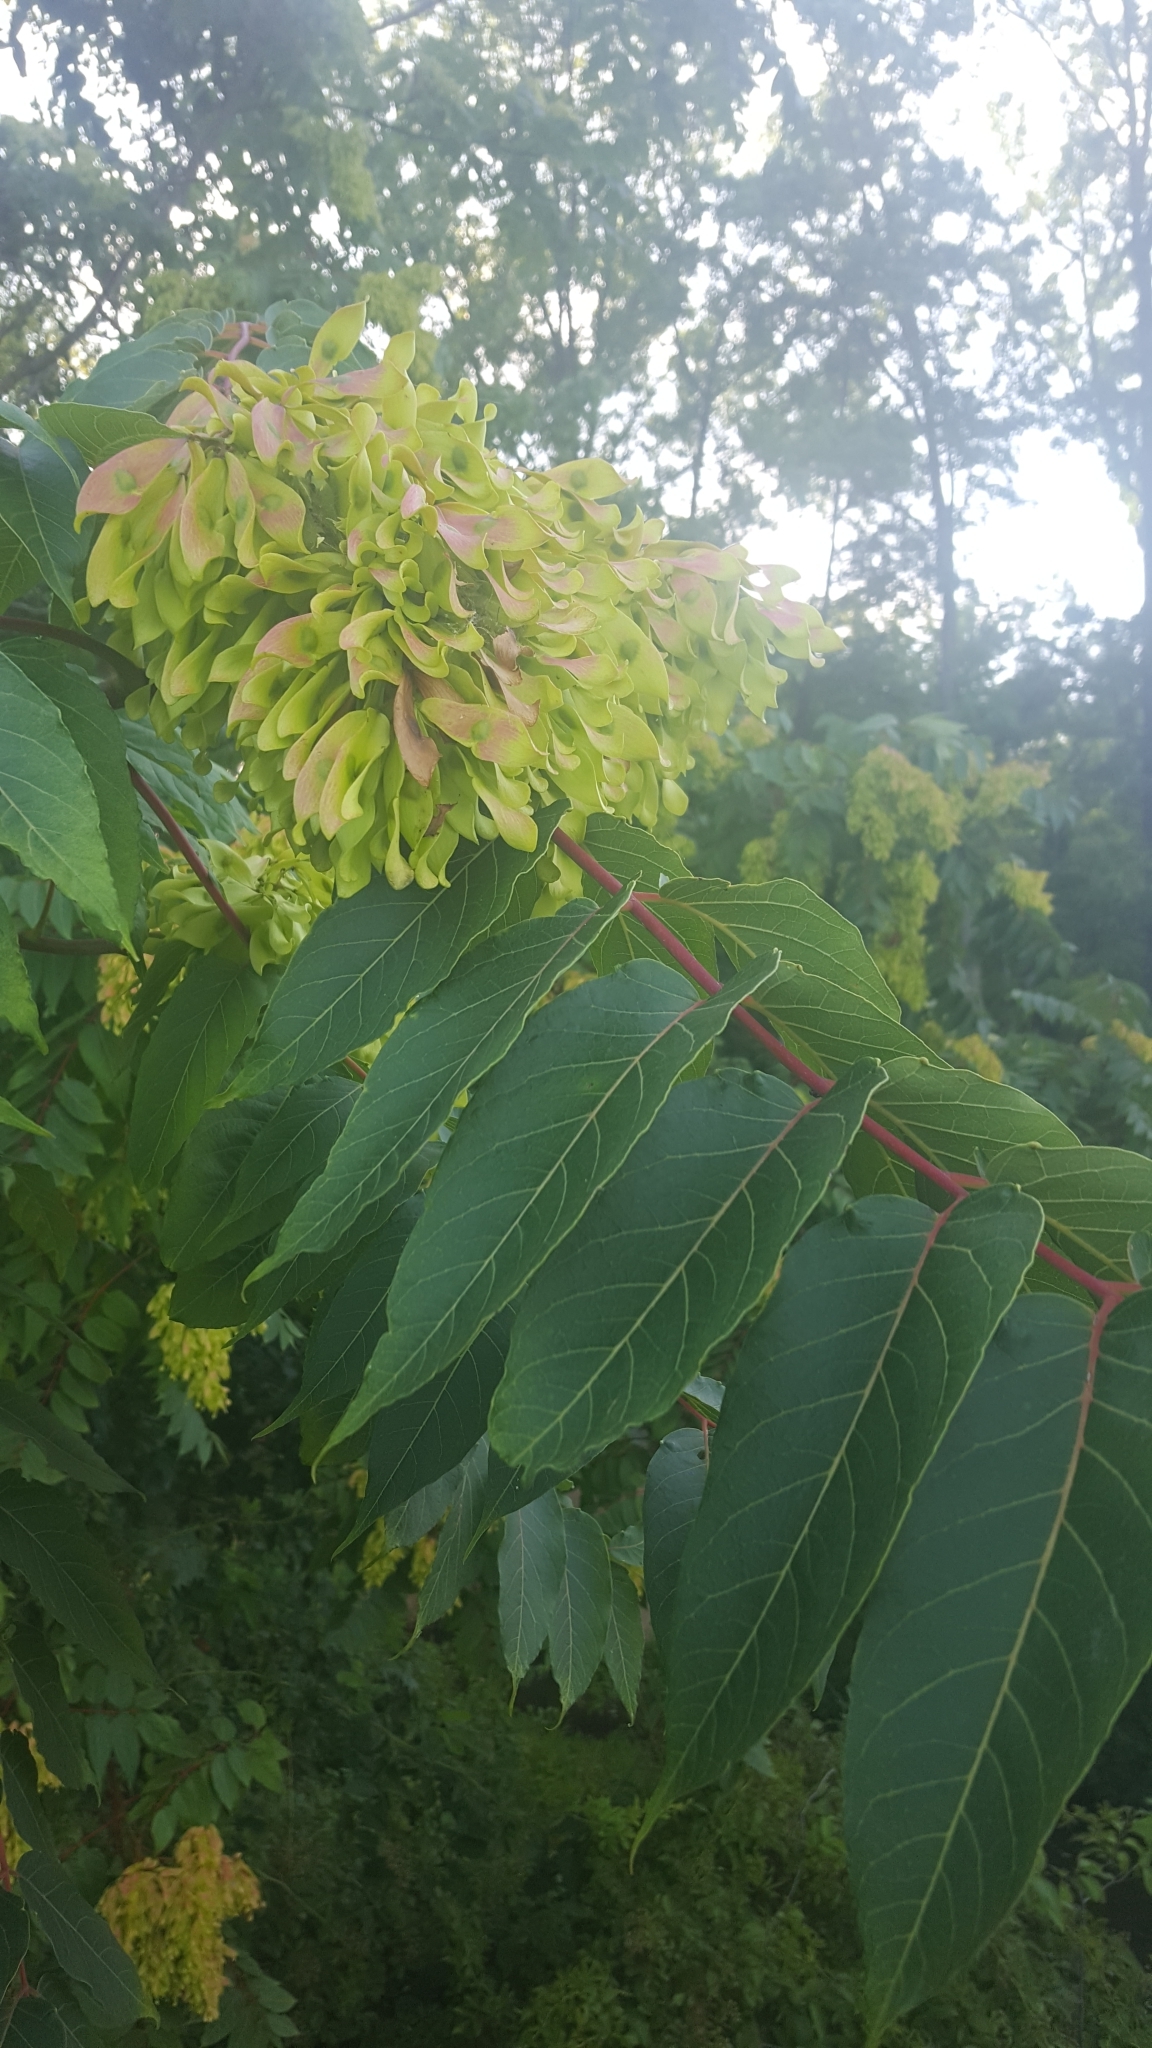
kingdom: Plantae
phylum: Tracheophyta
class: Magnoliopsida
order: Sapindales
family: Simaroubaceae
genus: Ailanthus
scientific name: Ailanthus altissima
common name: Tree-of-heaven
